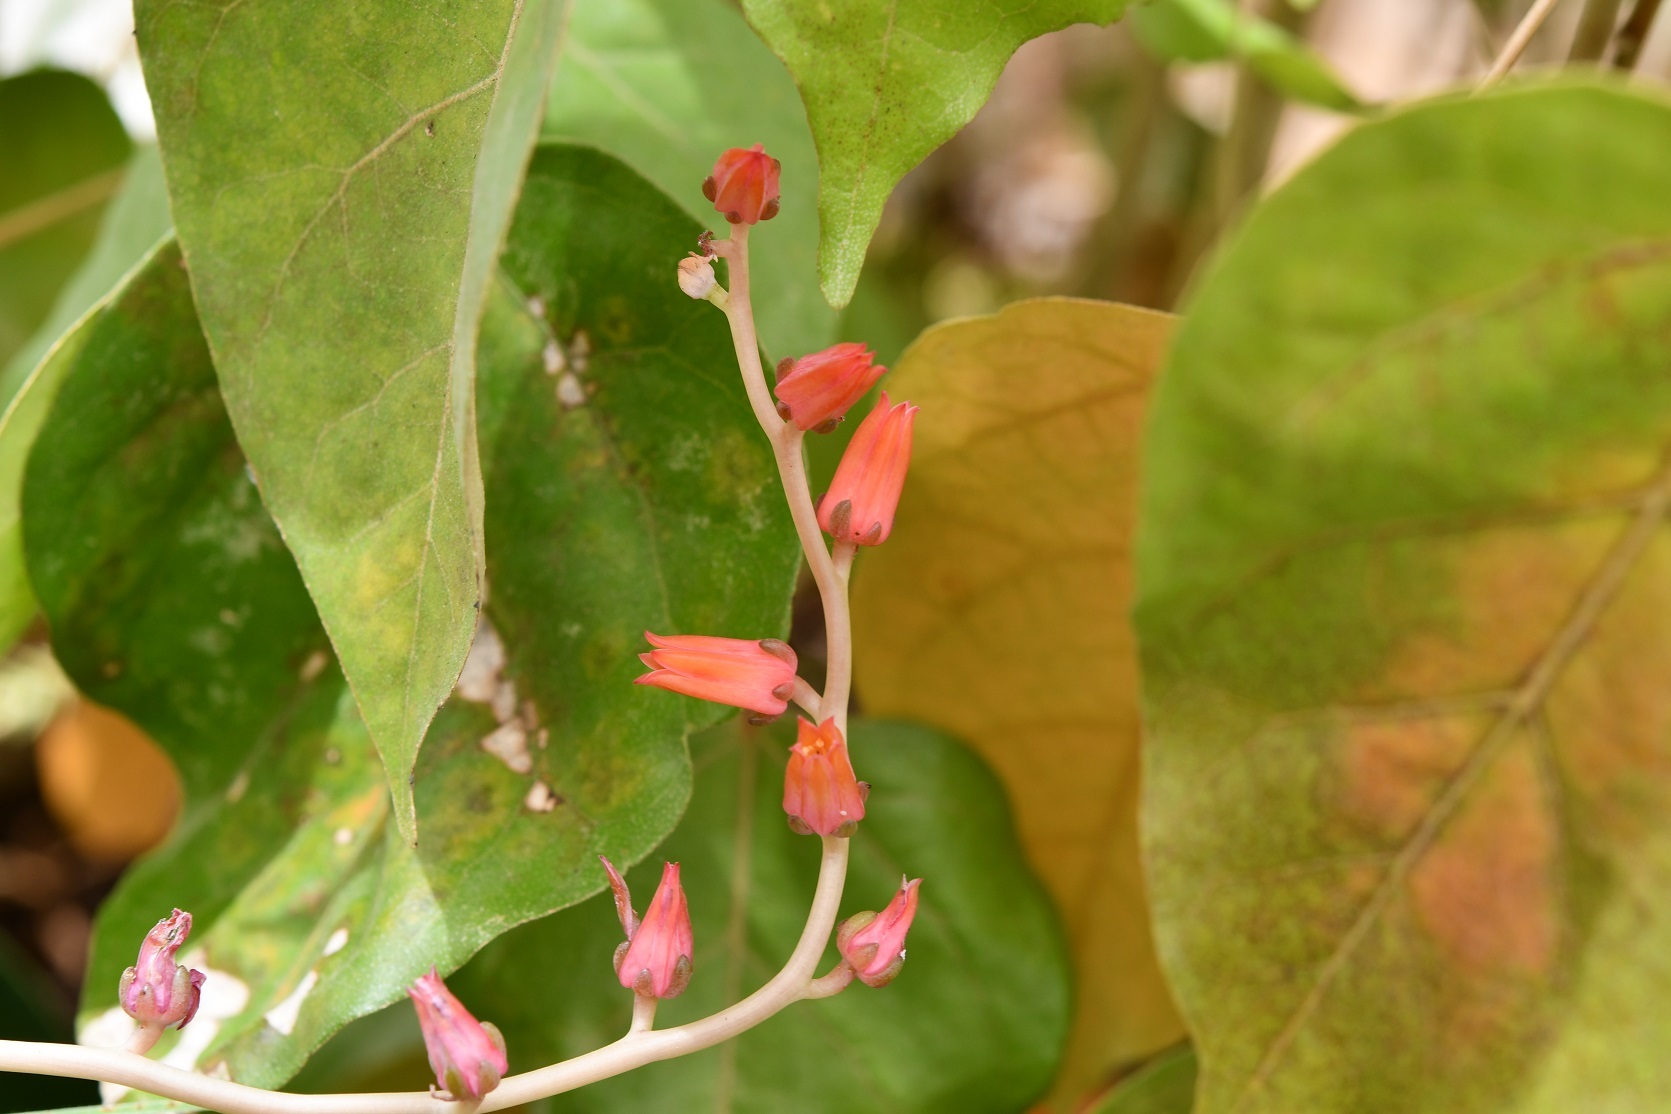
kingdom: Plantae
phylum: Tracheophyta
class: Magnoliopsida
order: Saxifragales
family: Crassulaceae
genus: Echeveria
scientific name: Echeveria goldmanii
